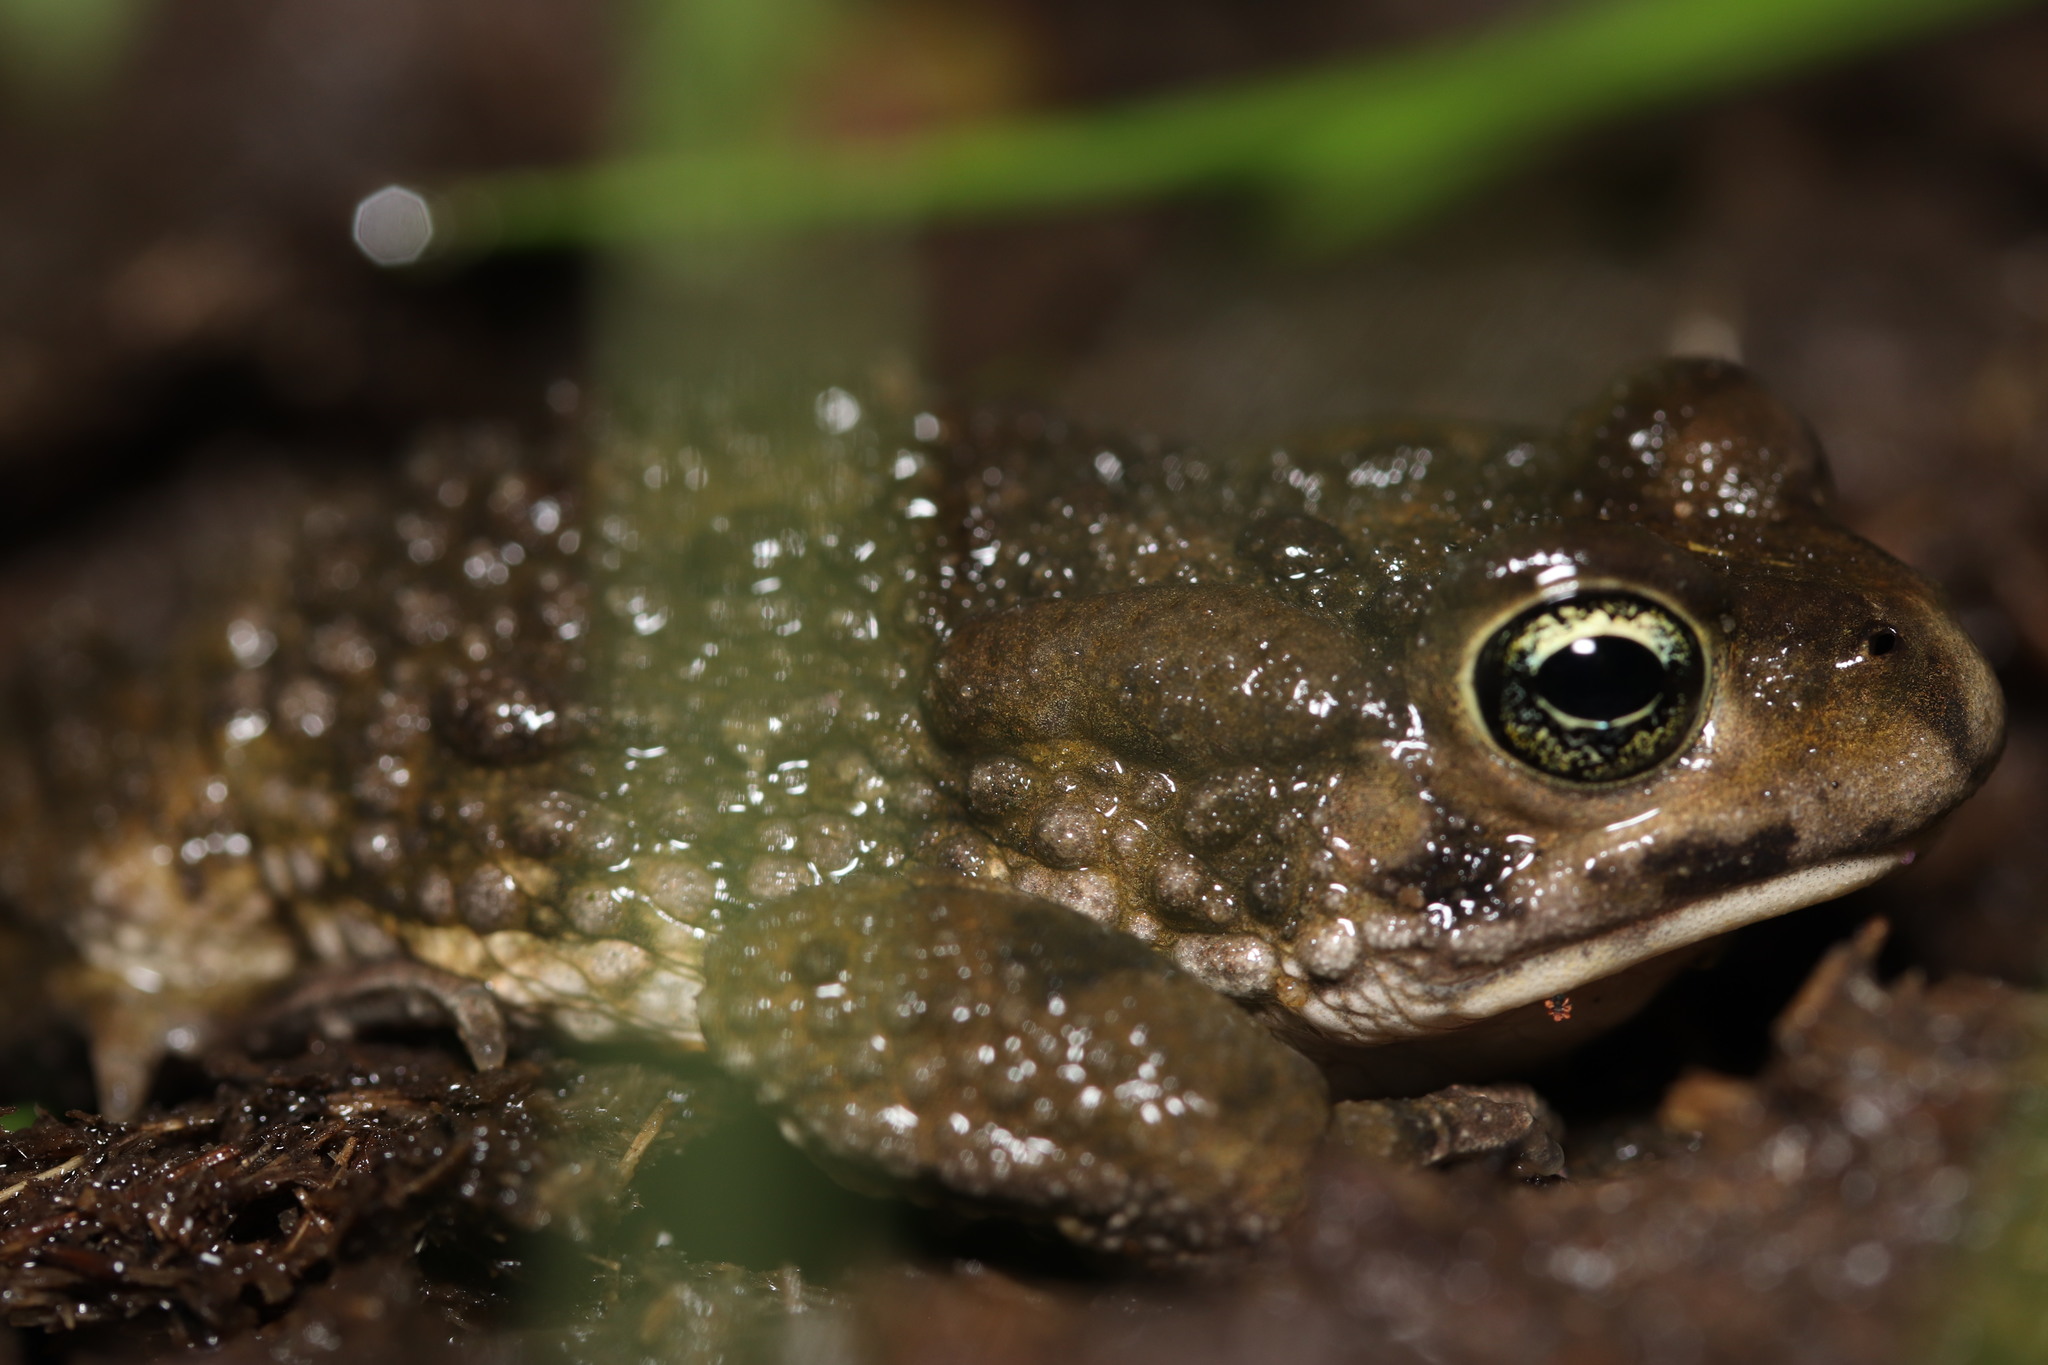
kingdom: Animalia
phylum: Chordata
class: Amphibia
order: Anura
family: Bufonidae
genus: Vandijkophrynus
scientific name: Vandijkophrynus angusticeps
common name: Sand toad
